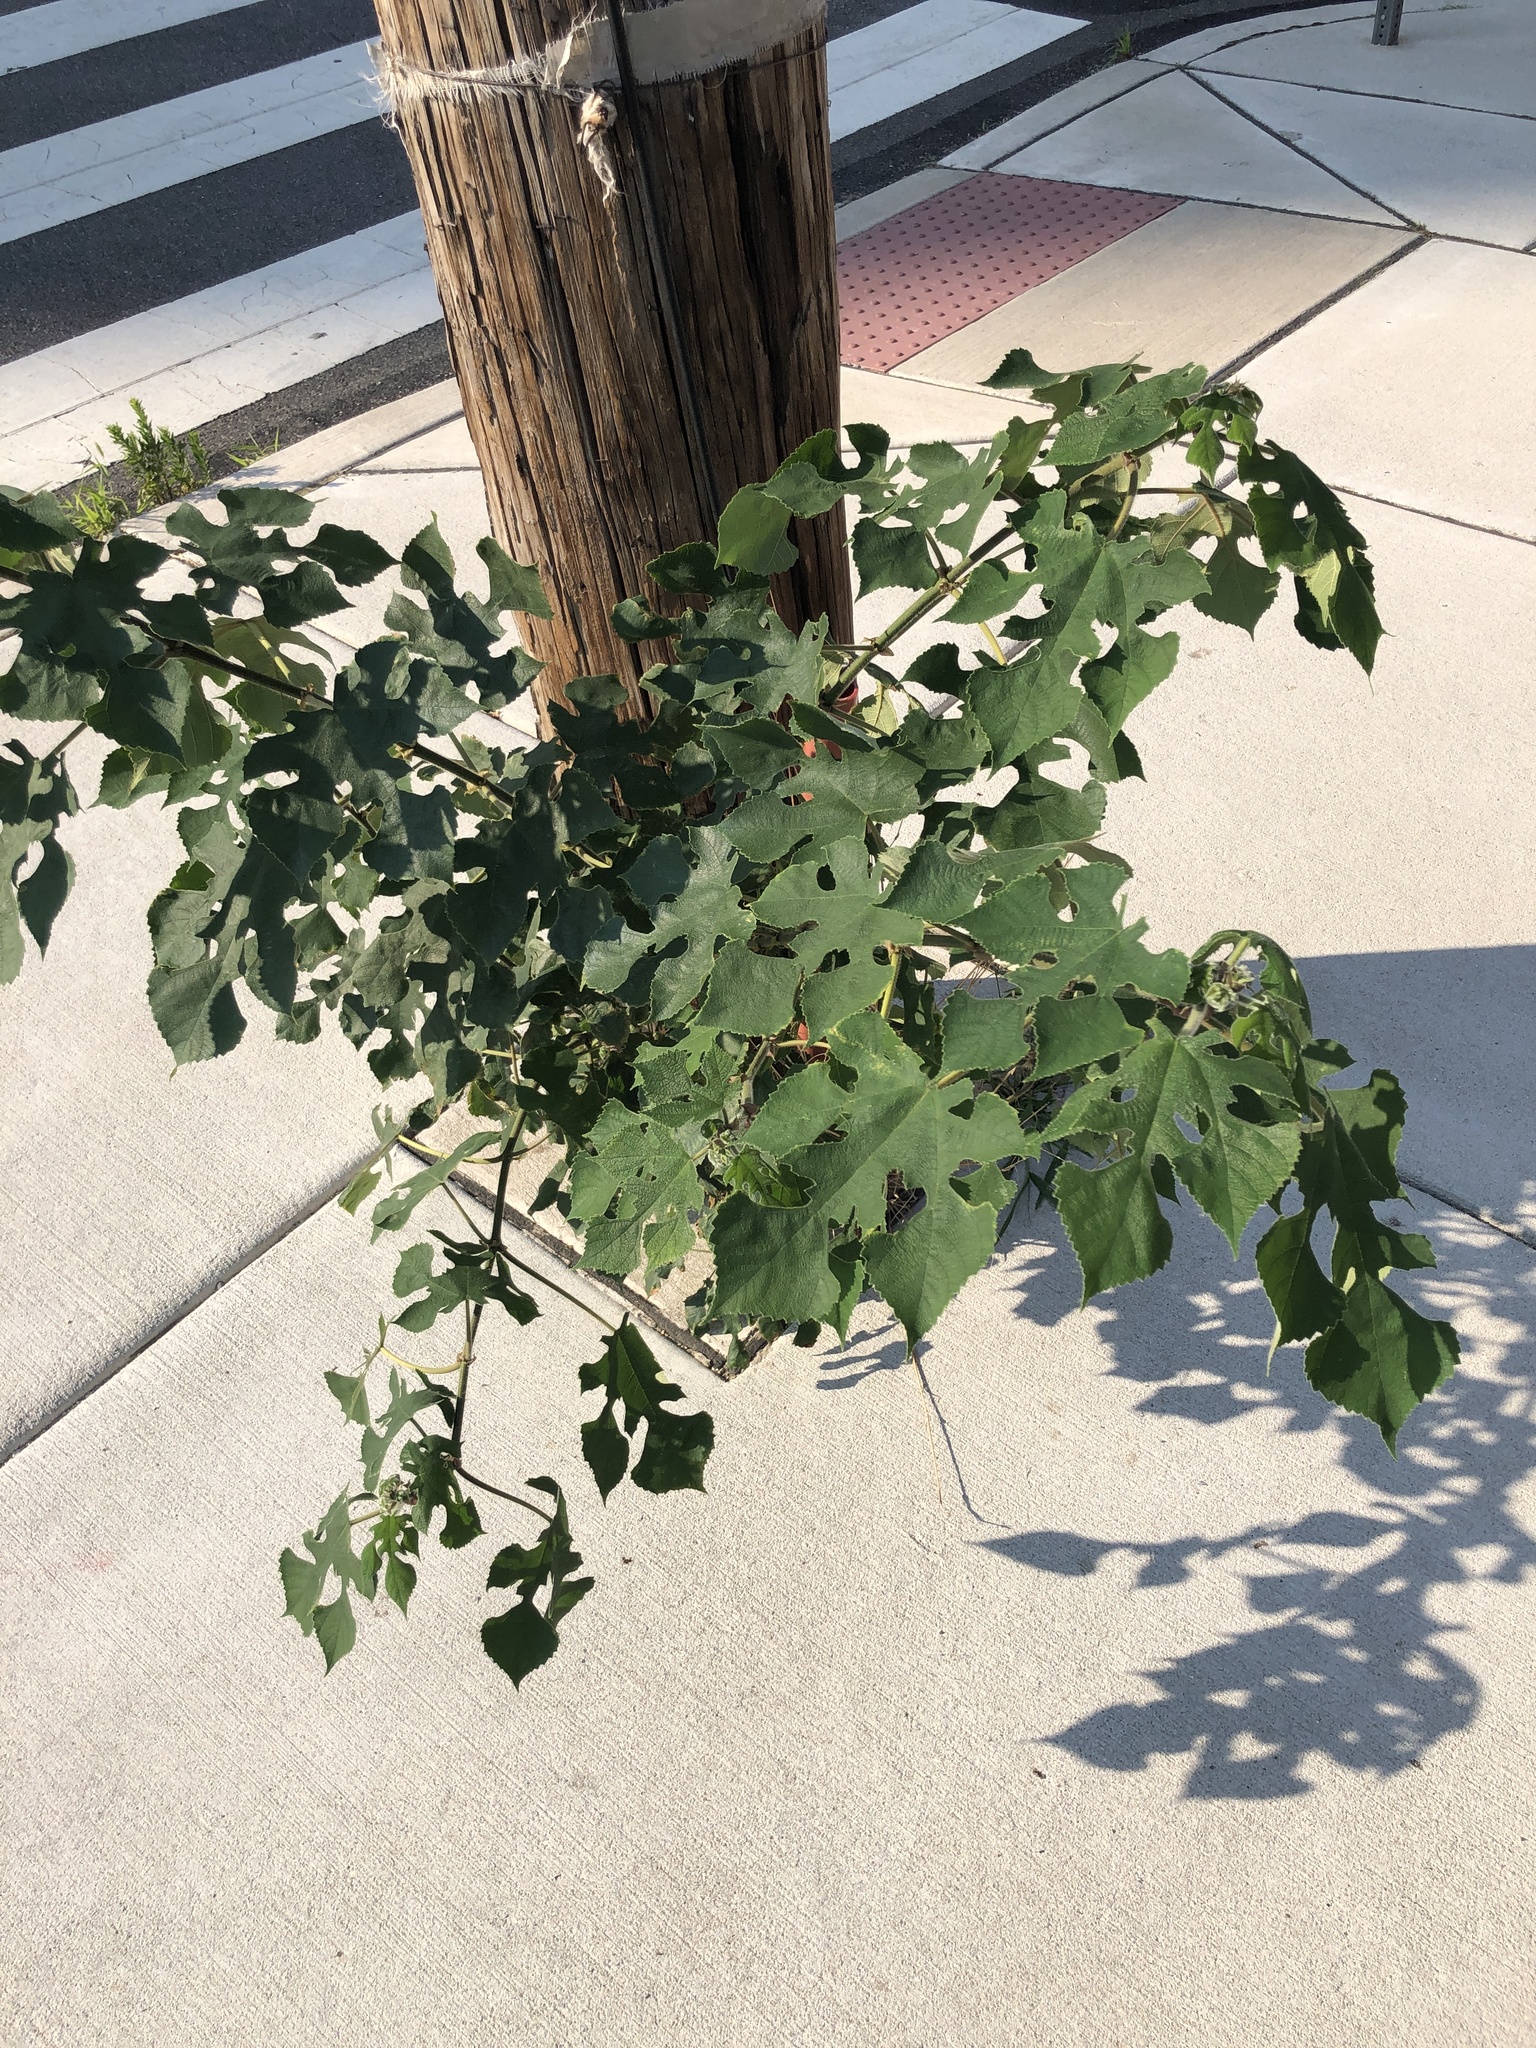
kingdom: Plantae
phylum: Tracheophyta
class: Magnoliopsida
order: Rosales
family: Moraceae
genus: Broussonetia
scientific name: Broussonetia papyrifera
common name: Paper mulberry
